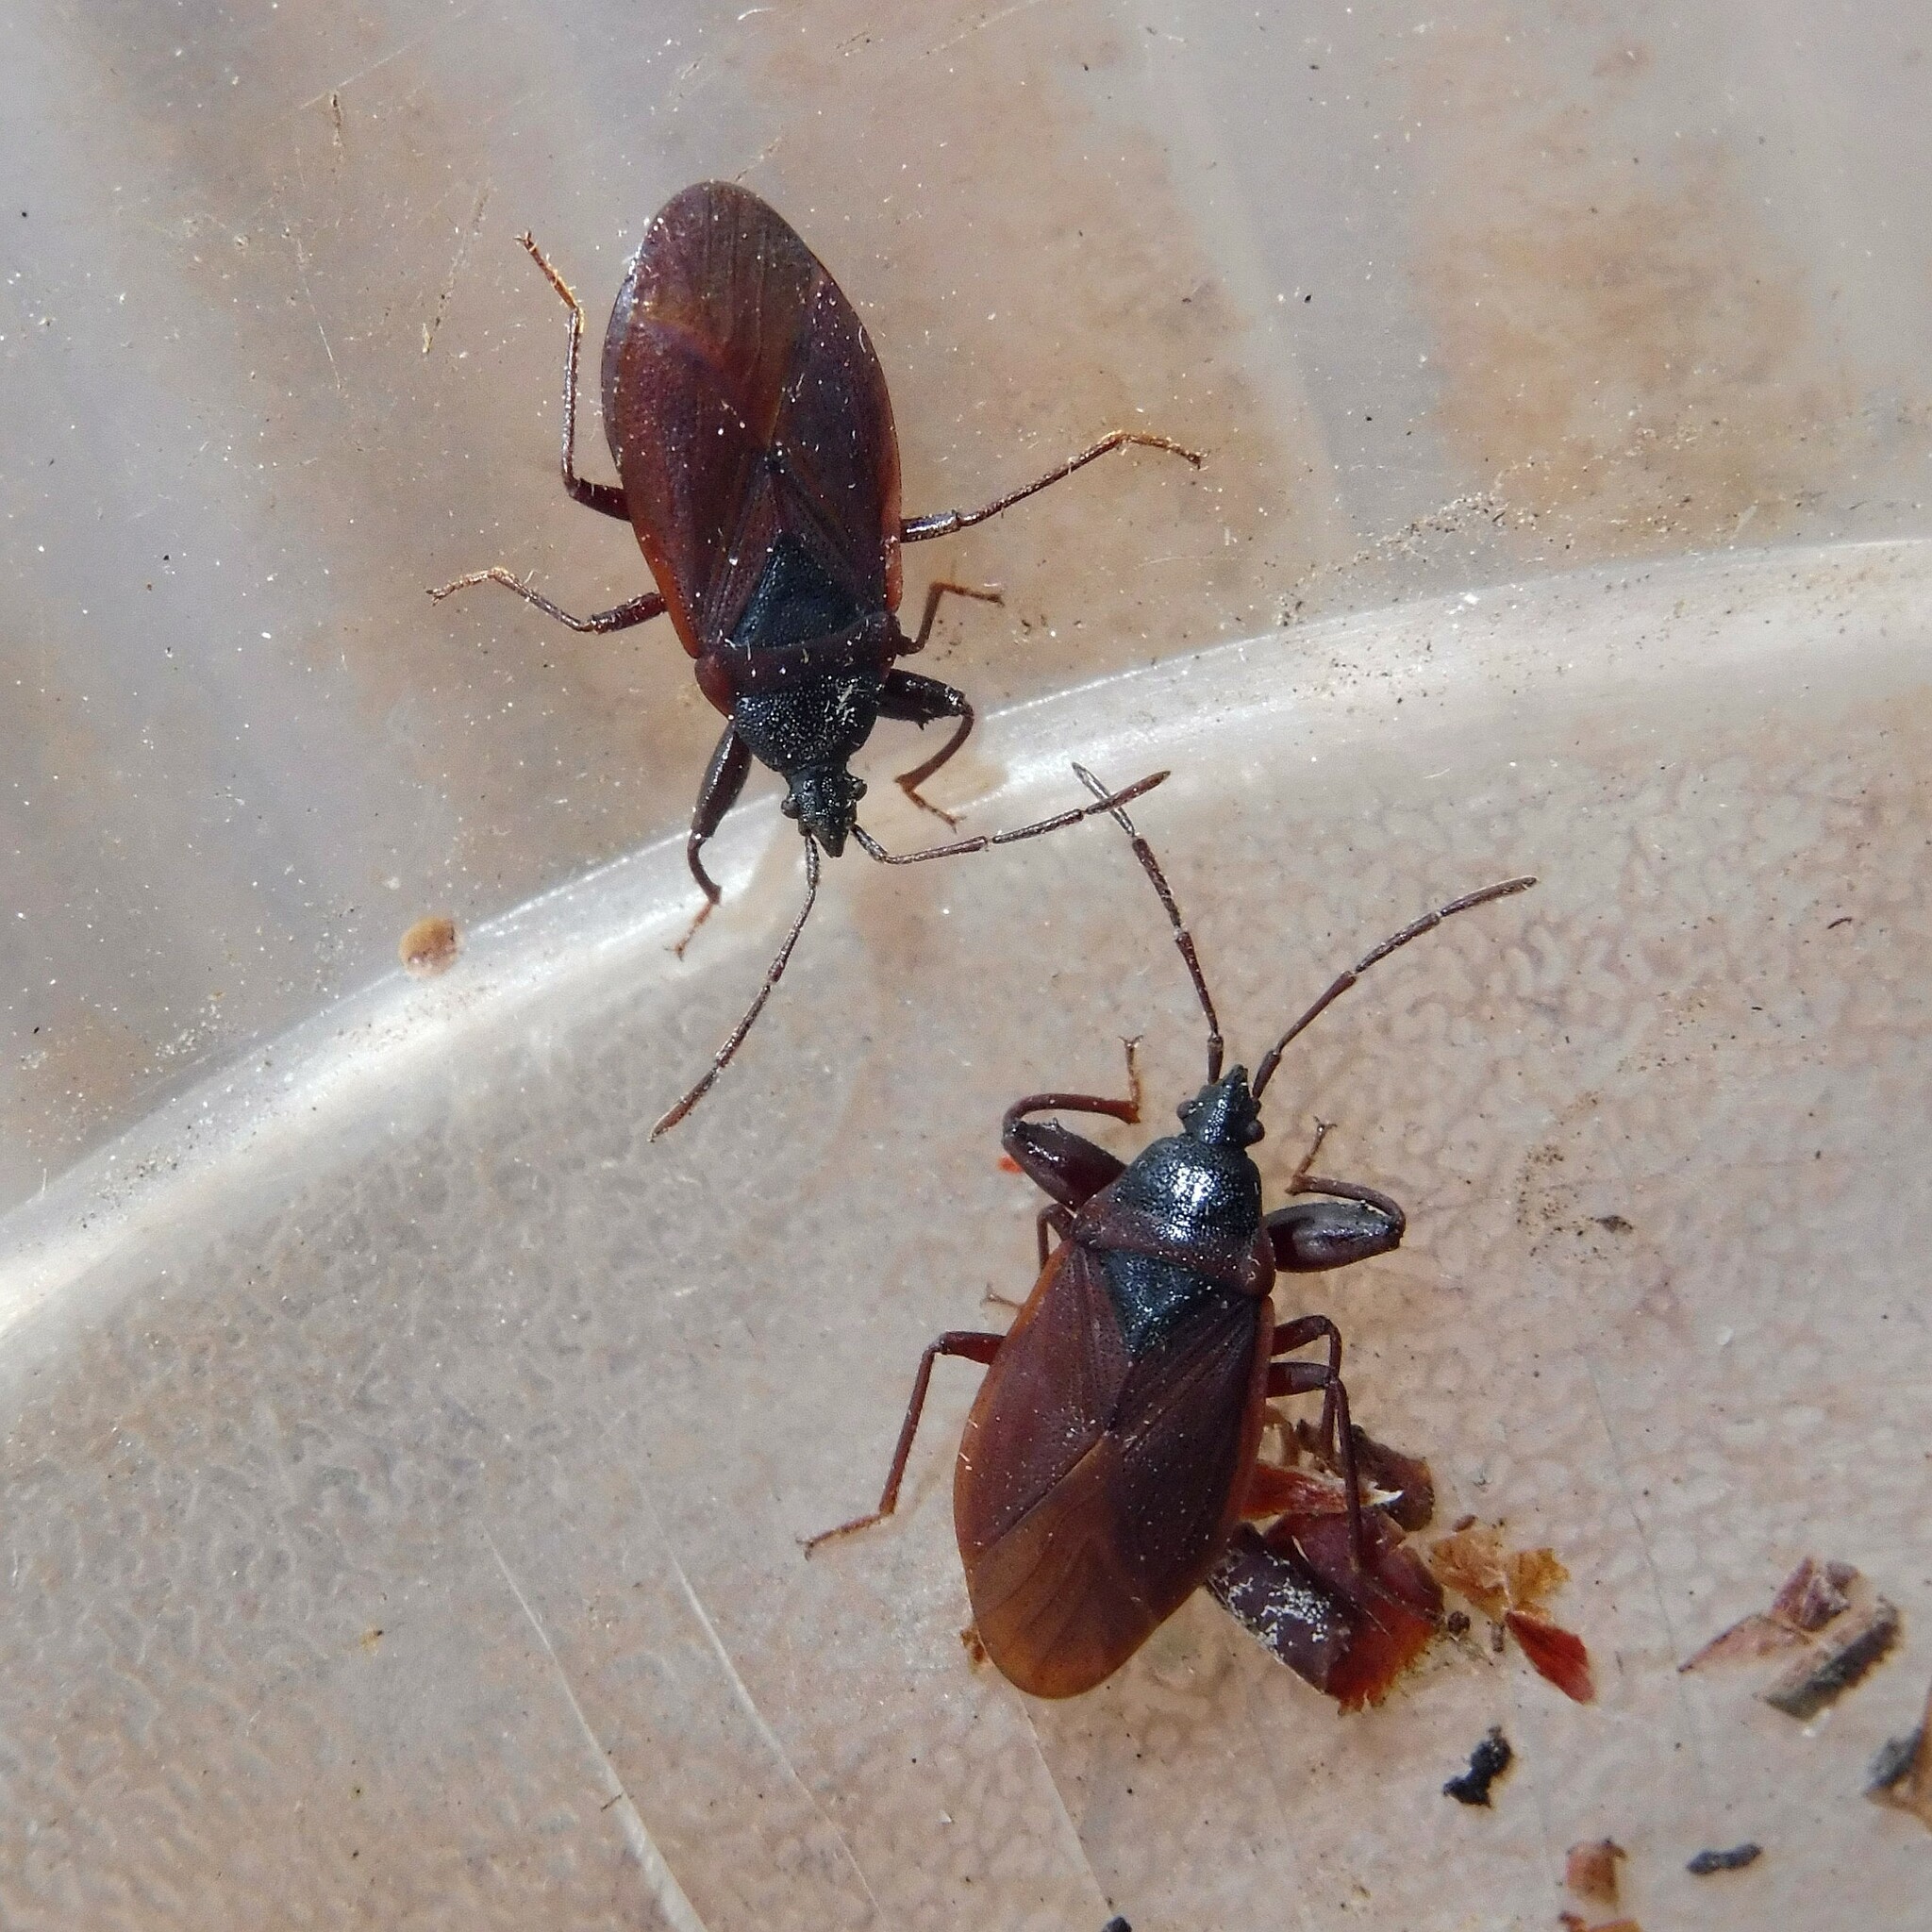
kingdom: Animalia
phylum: Arthropoda
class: Insecta
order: Hemiptera
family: Rhyparochromidae
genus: Gastrodes
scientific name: Gastrodes grossipes
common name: Pine cone bug
